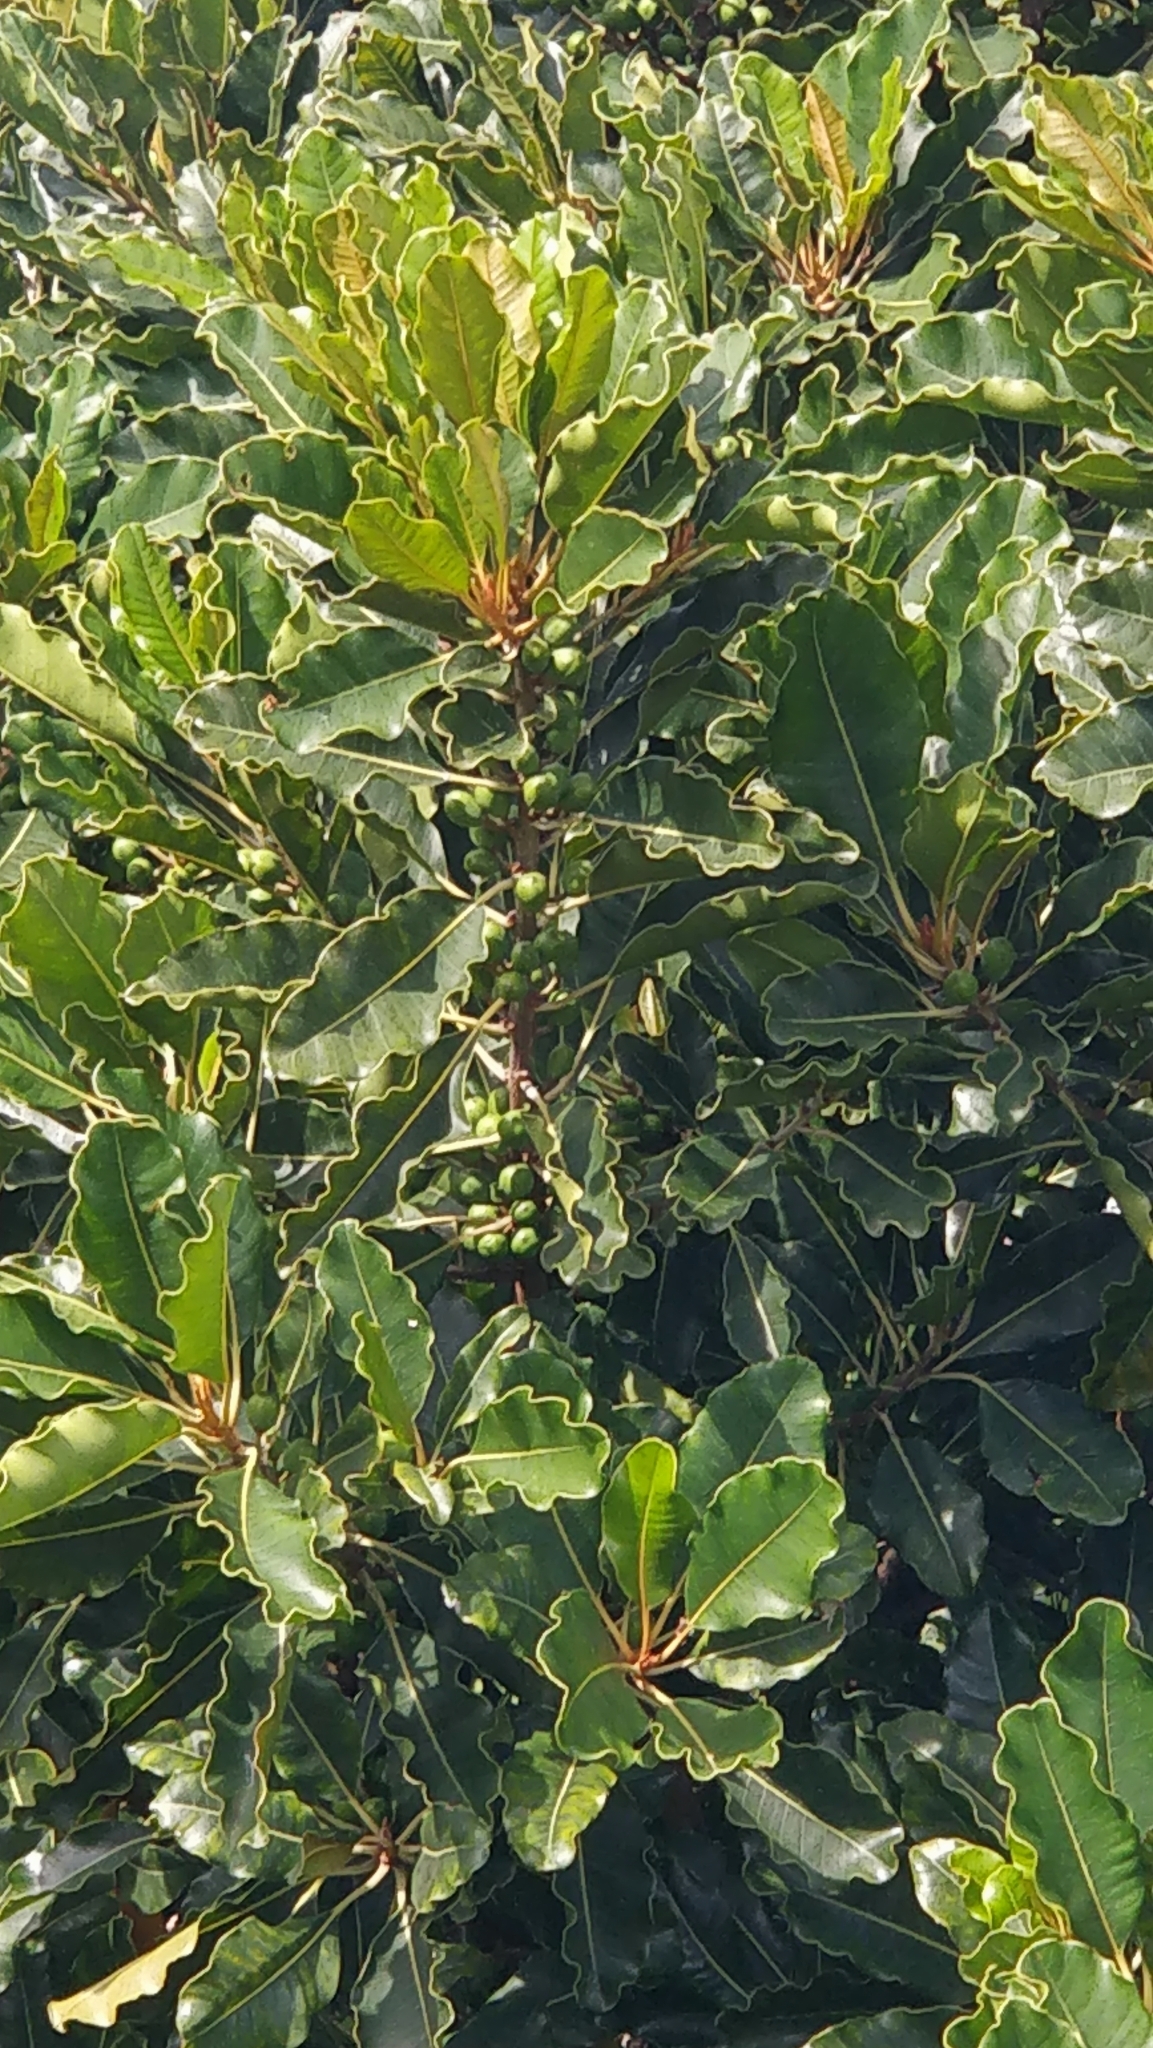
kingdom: Plantae
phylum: Tracheophyta
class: Magnoliopsida
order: Ericales
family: Sapotaceae
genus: Sideroxylon
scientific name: Sideroxylon mirmulans
